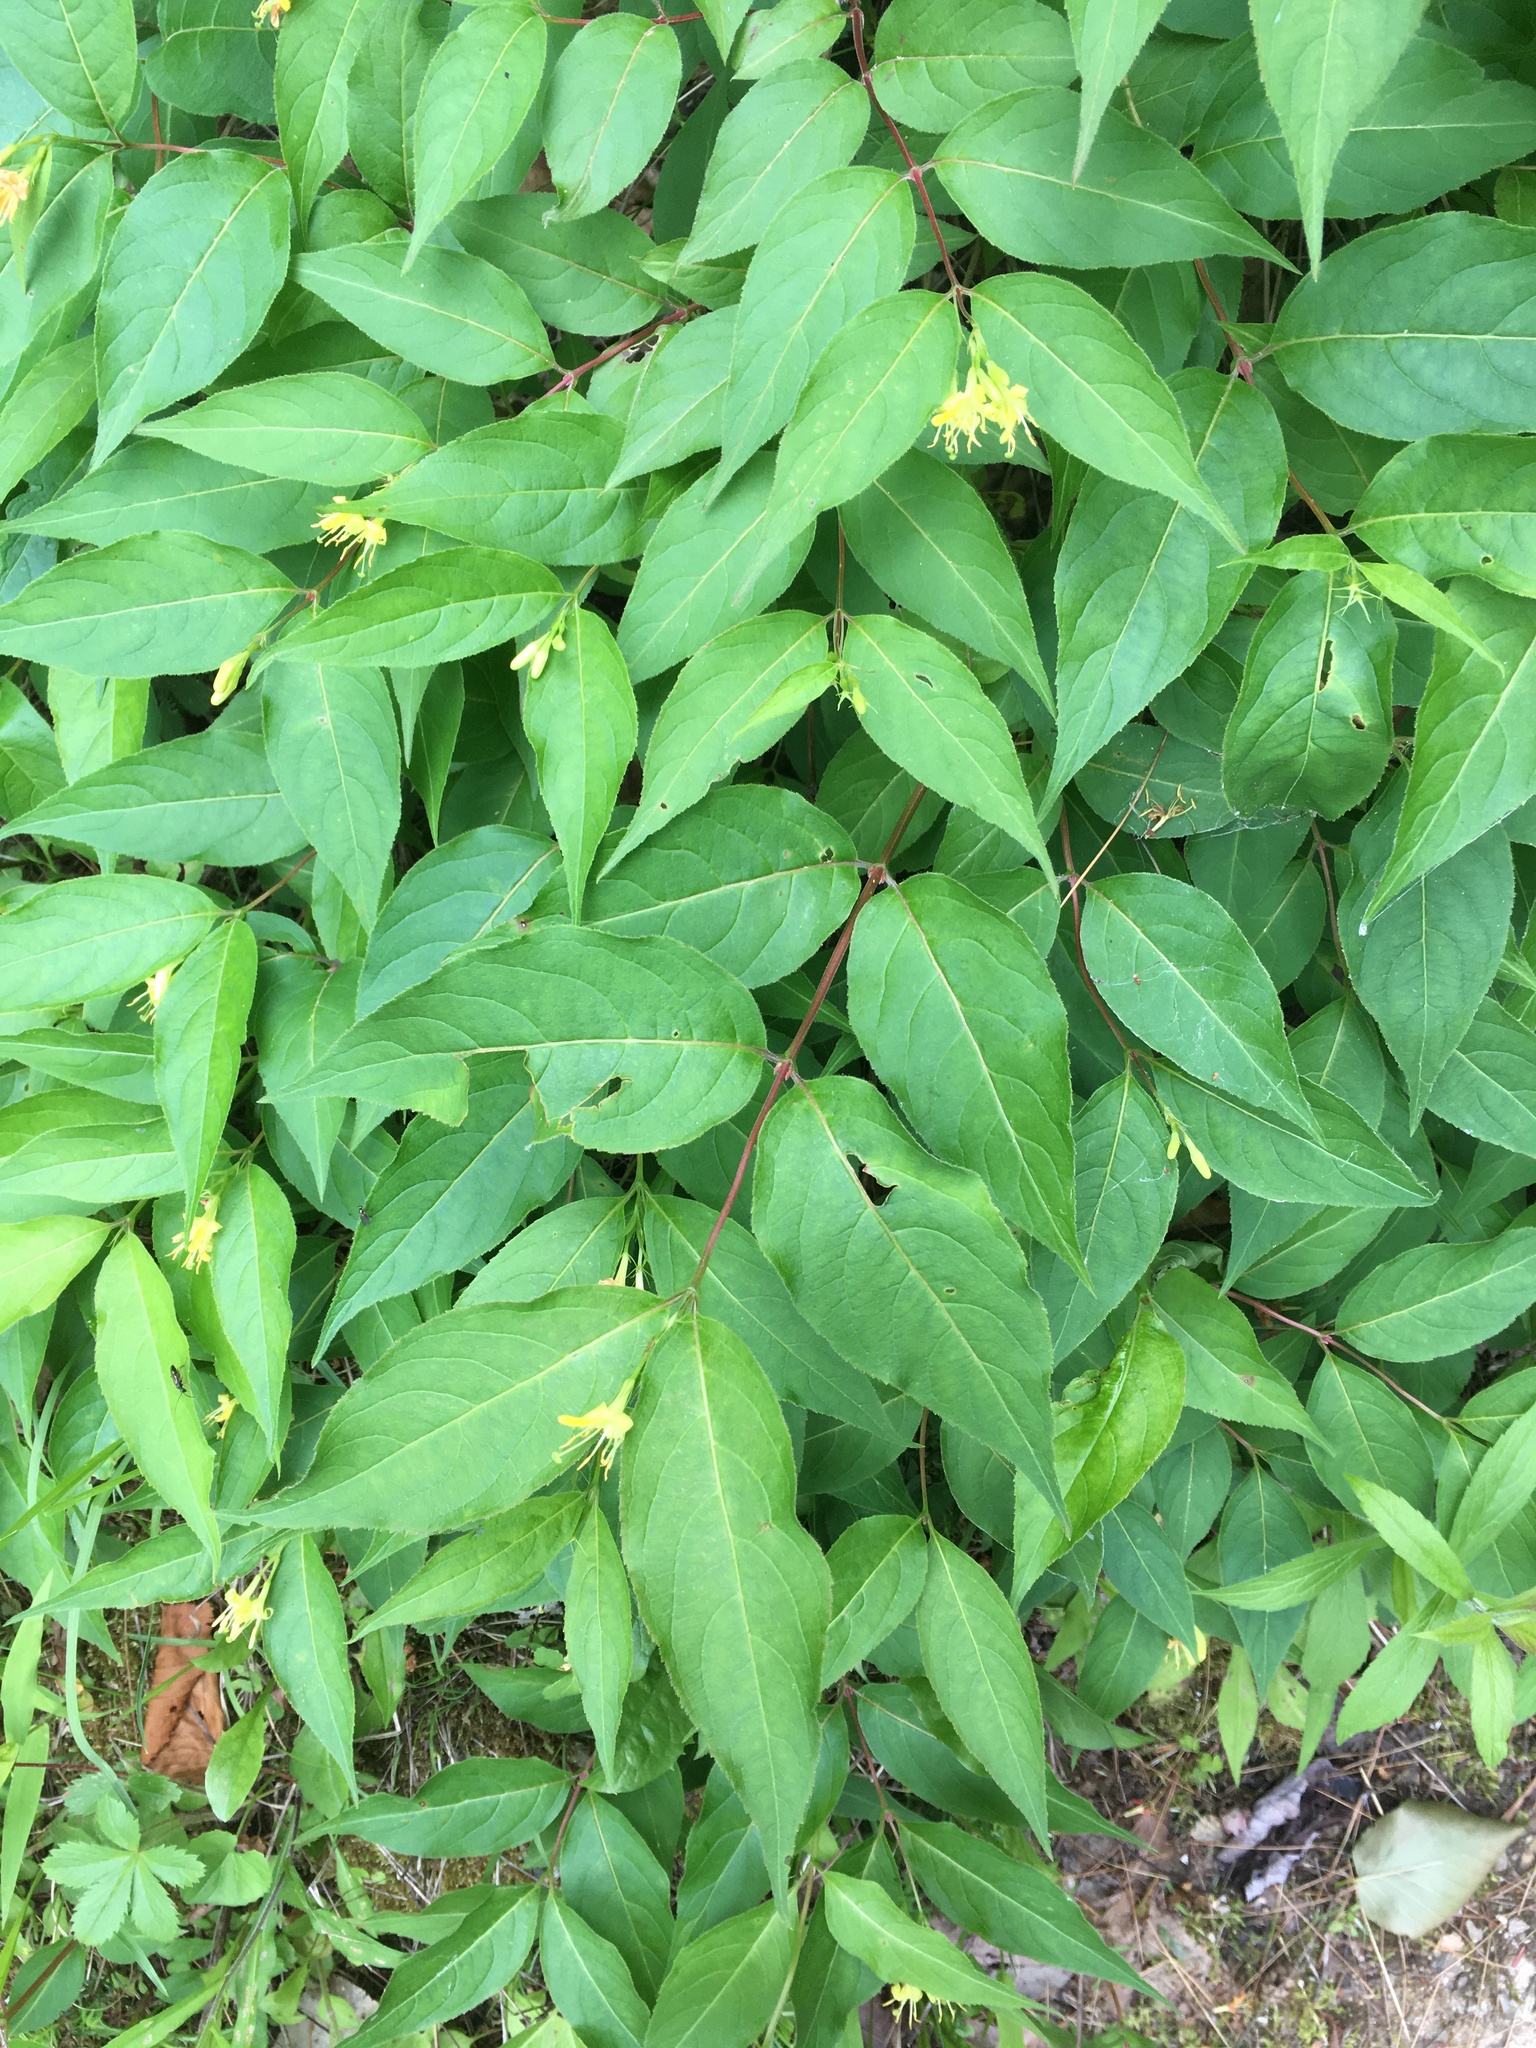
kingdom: Plantae
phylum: Tracheophyta
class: Magnoliopsida
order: Dipsacales
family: Caprifoliaceae
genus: Diervilla
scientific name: Diervilla lonicera
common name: Bush-honeysuckle
